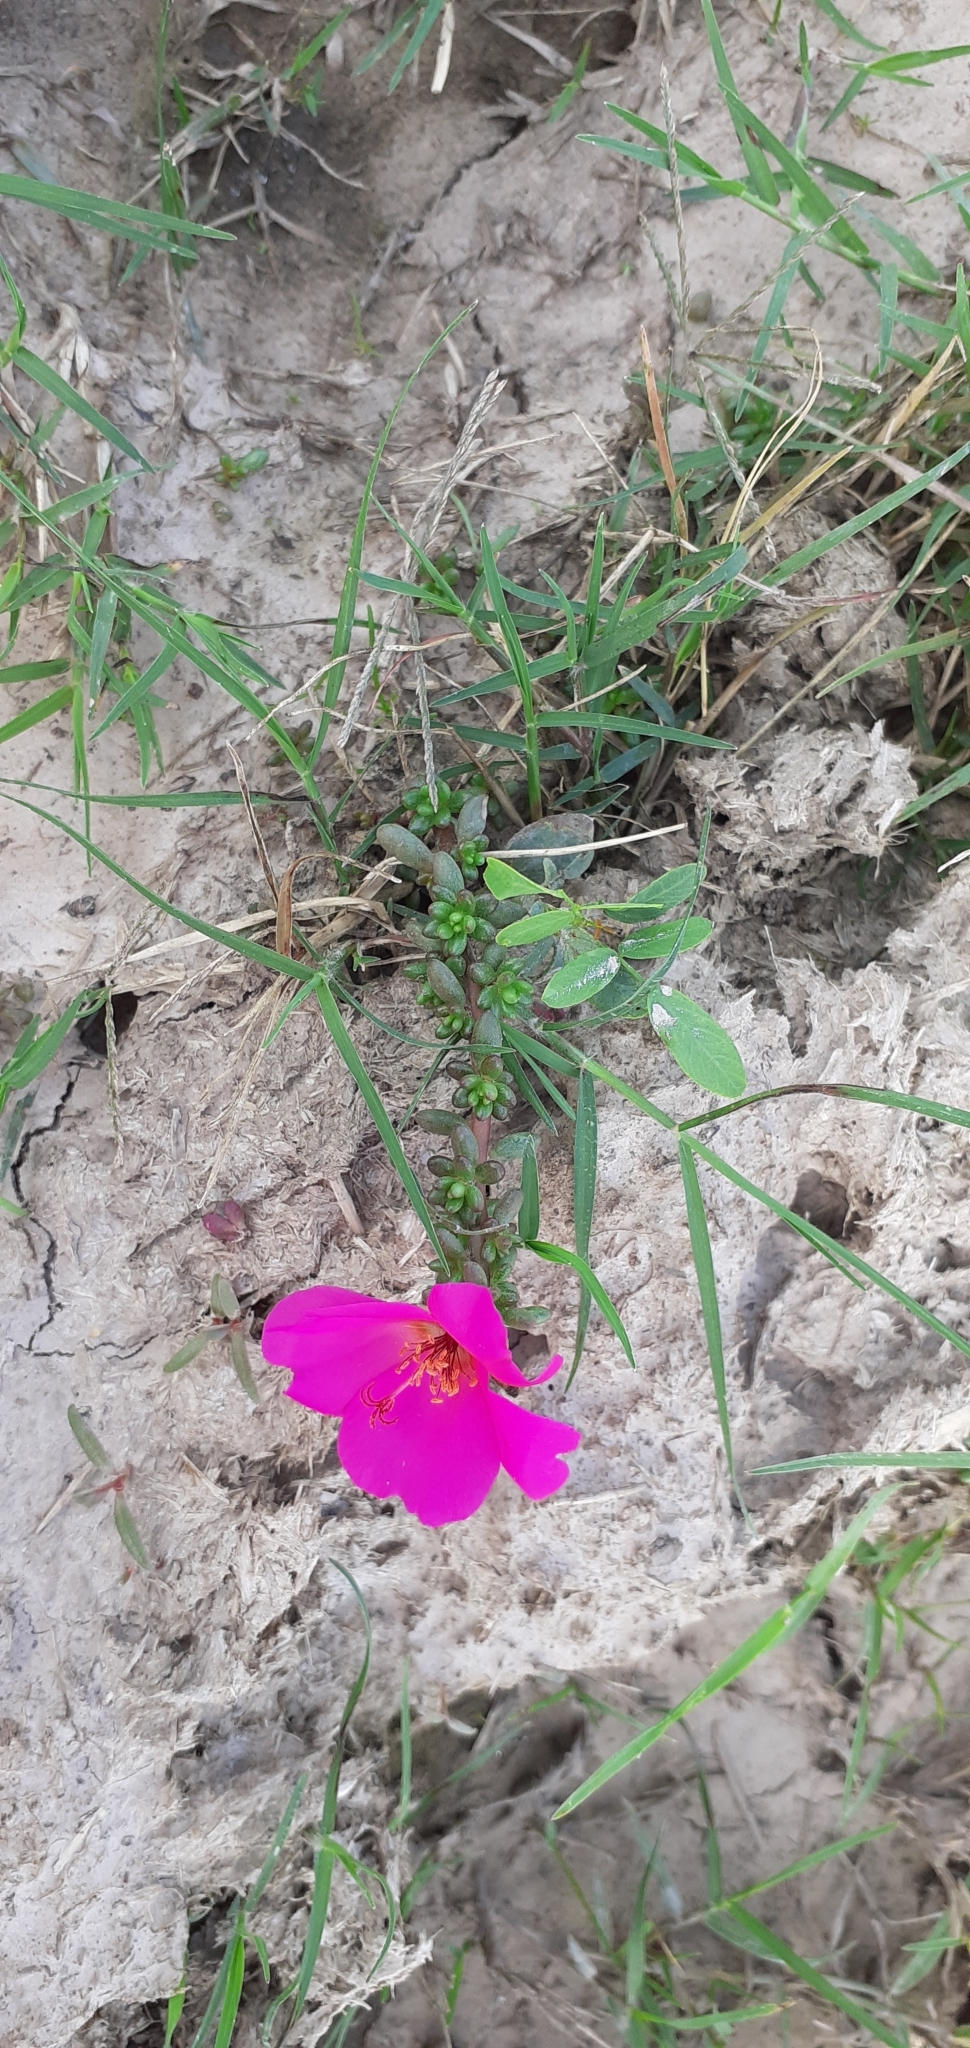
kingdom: Plantae
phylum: Tracheophyta
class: Magnoliopsida
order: Caryophyllales
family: Portulacaceae
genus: Portulaca
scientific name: Portulaca grandiflora
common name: Moss-rose
